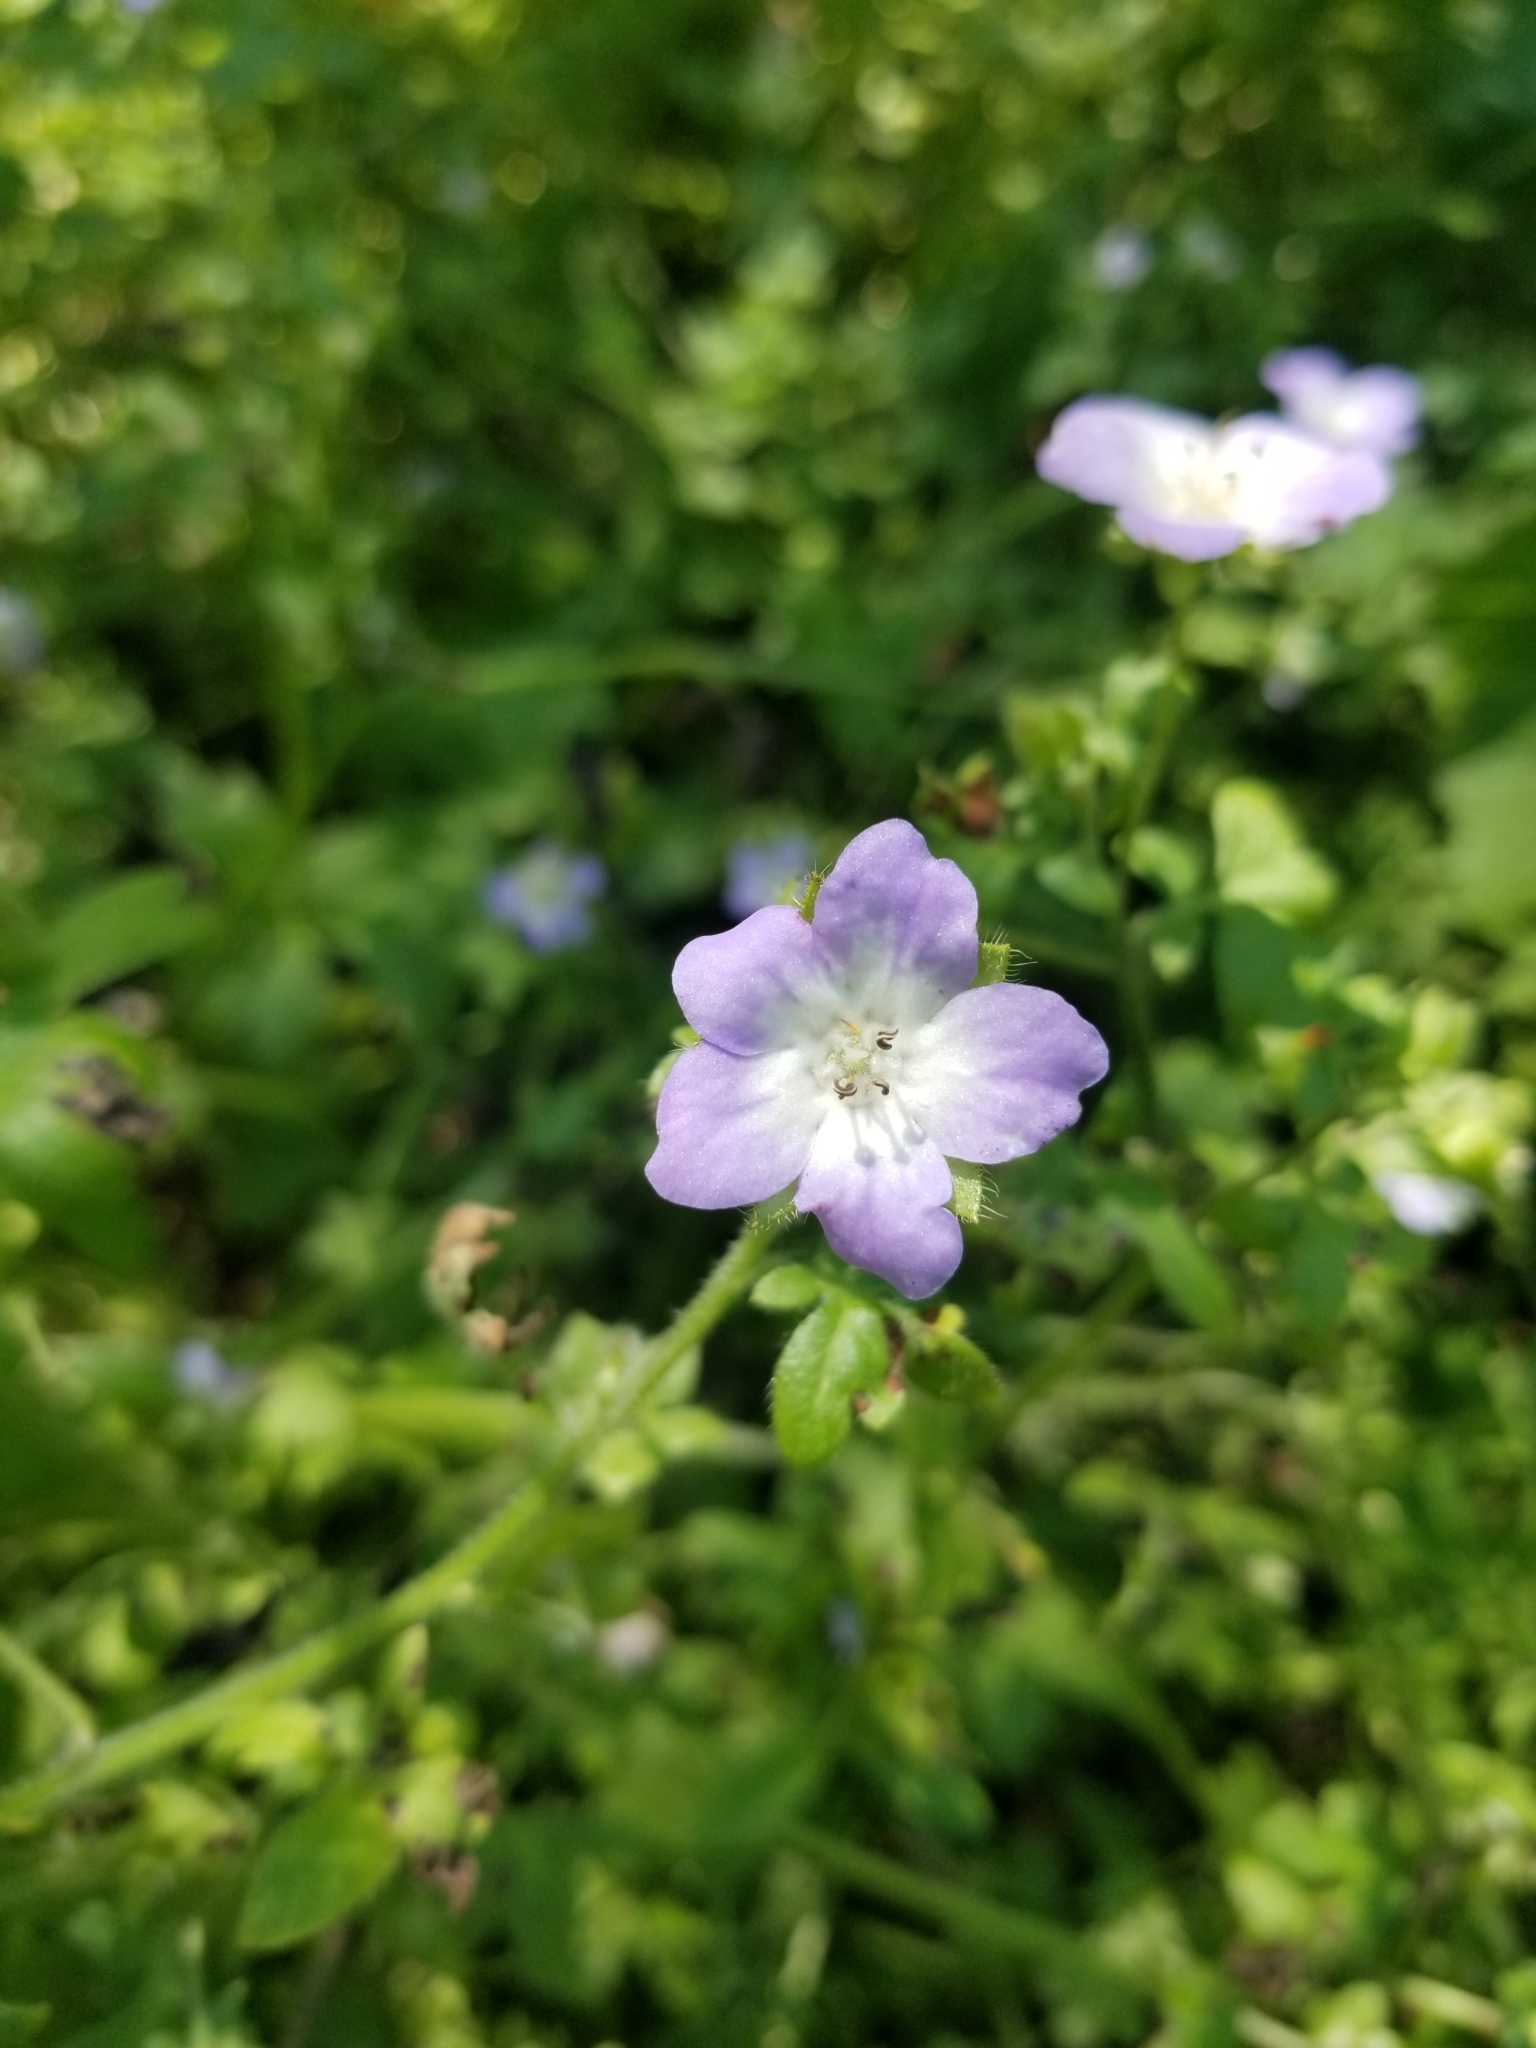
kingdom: Plantae
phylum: Tracheophyta
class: Magnoliopsida
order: Boraginales
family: Hydrophyllaceae
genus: Nemophila
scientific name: Nemophila phacelioides
